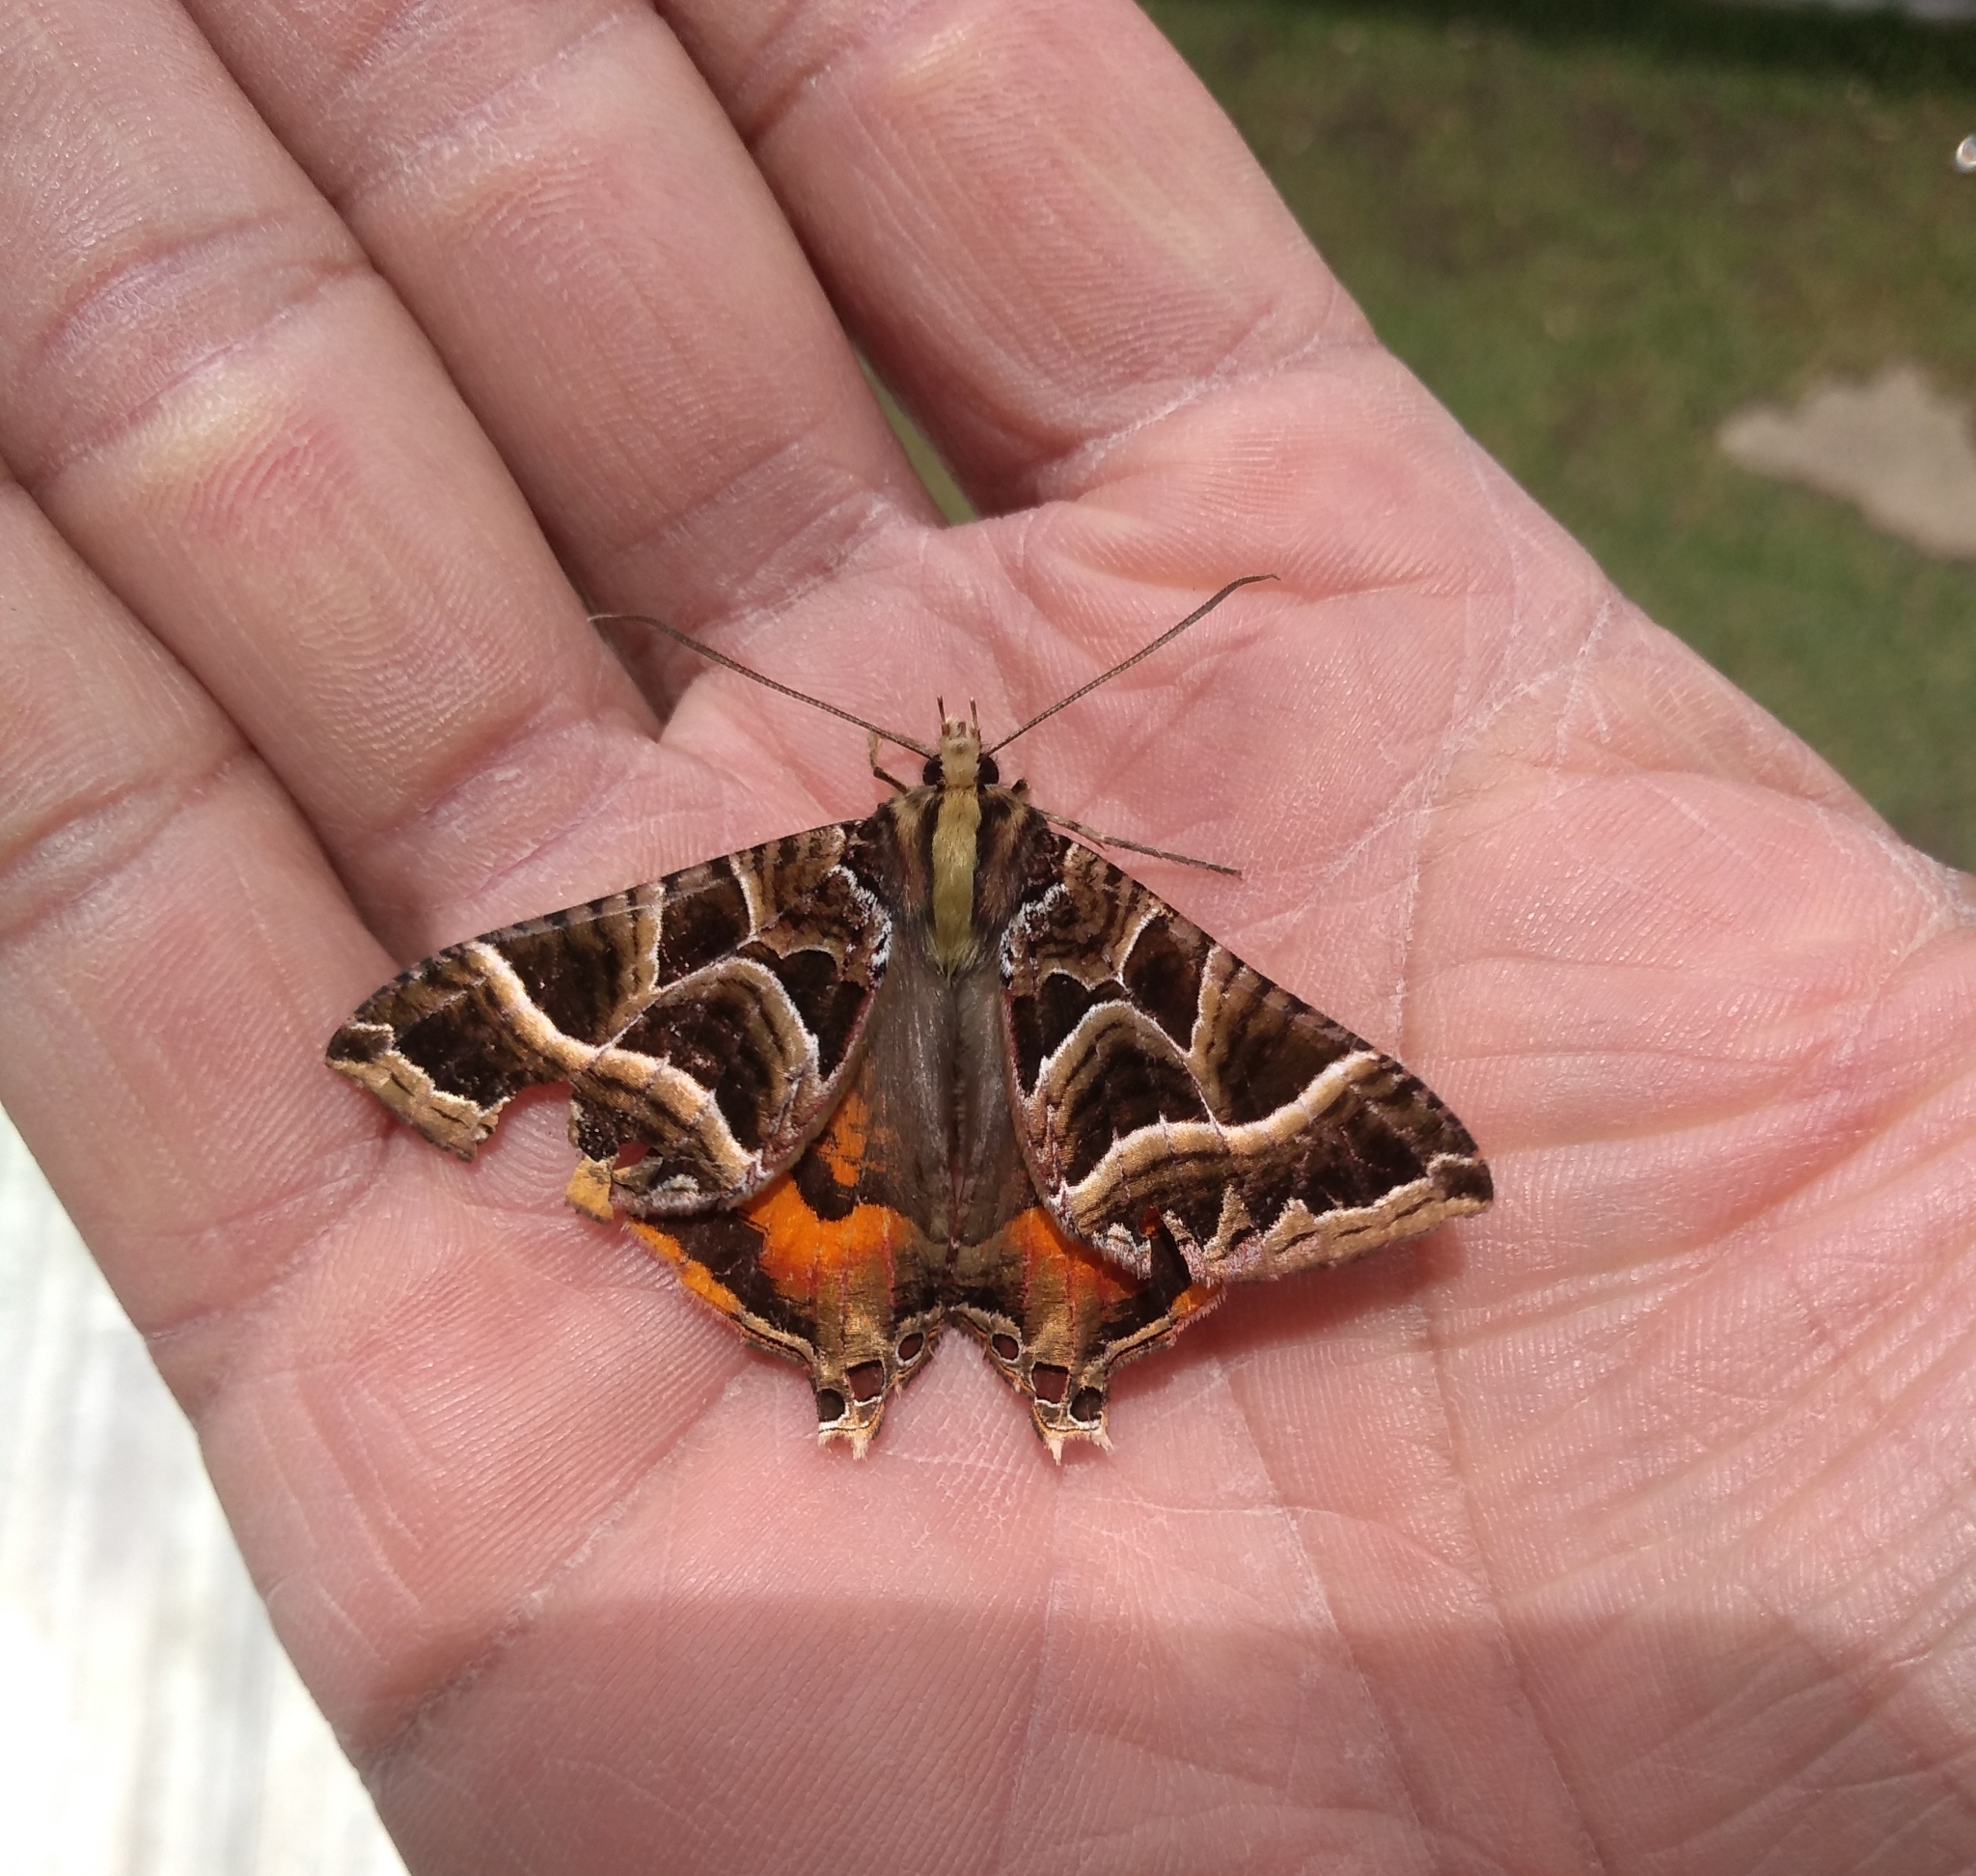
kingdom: Animalia
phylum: Arthropoda
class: Insecta
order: Lepidoptera
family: Sematuridae
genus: Coronidia
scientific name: Coronidia
